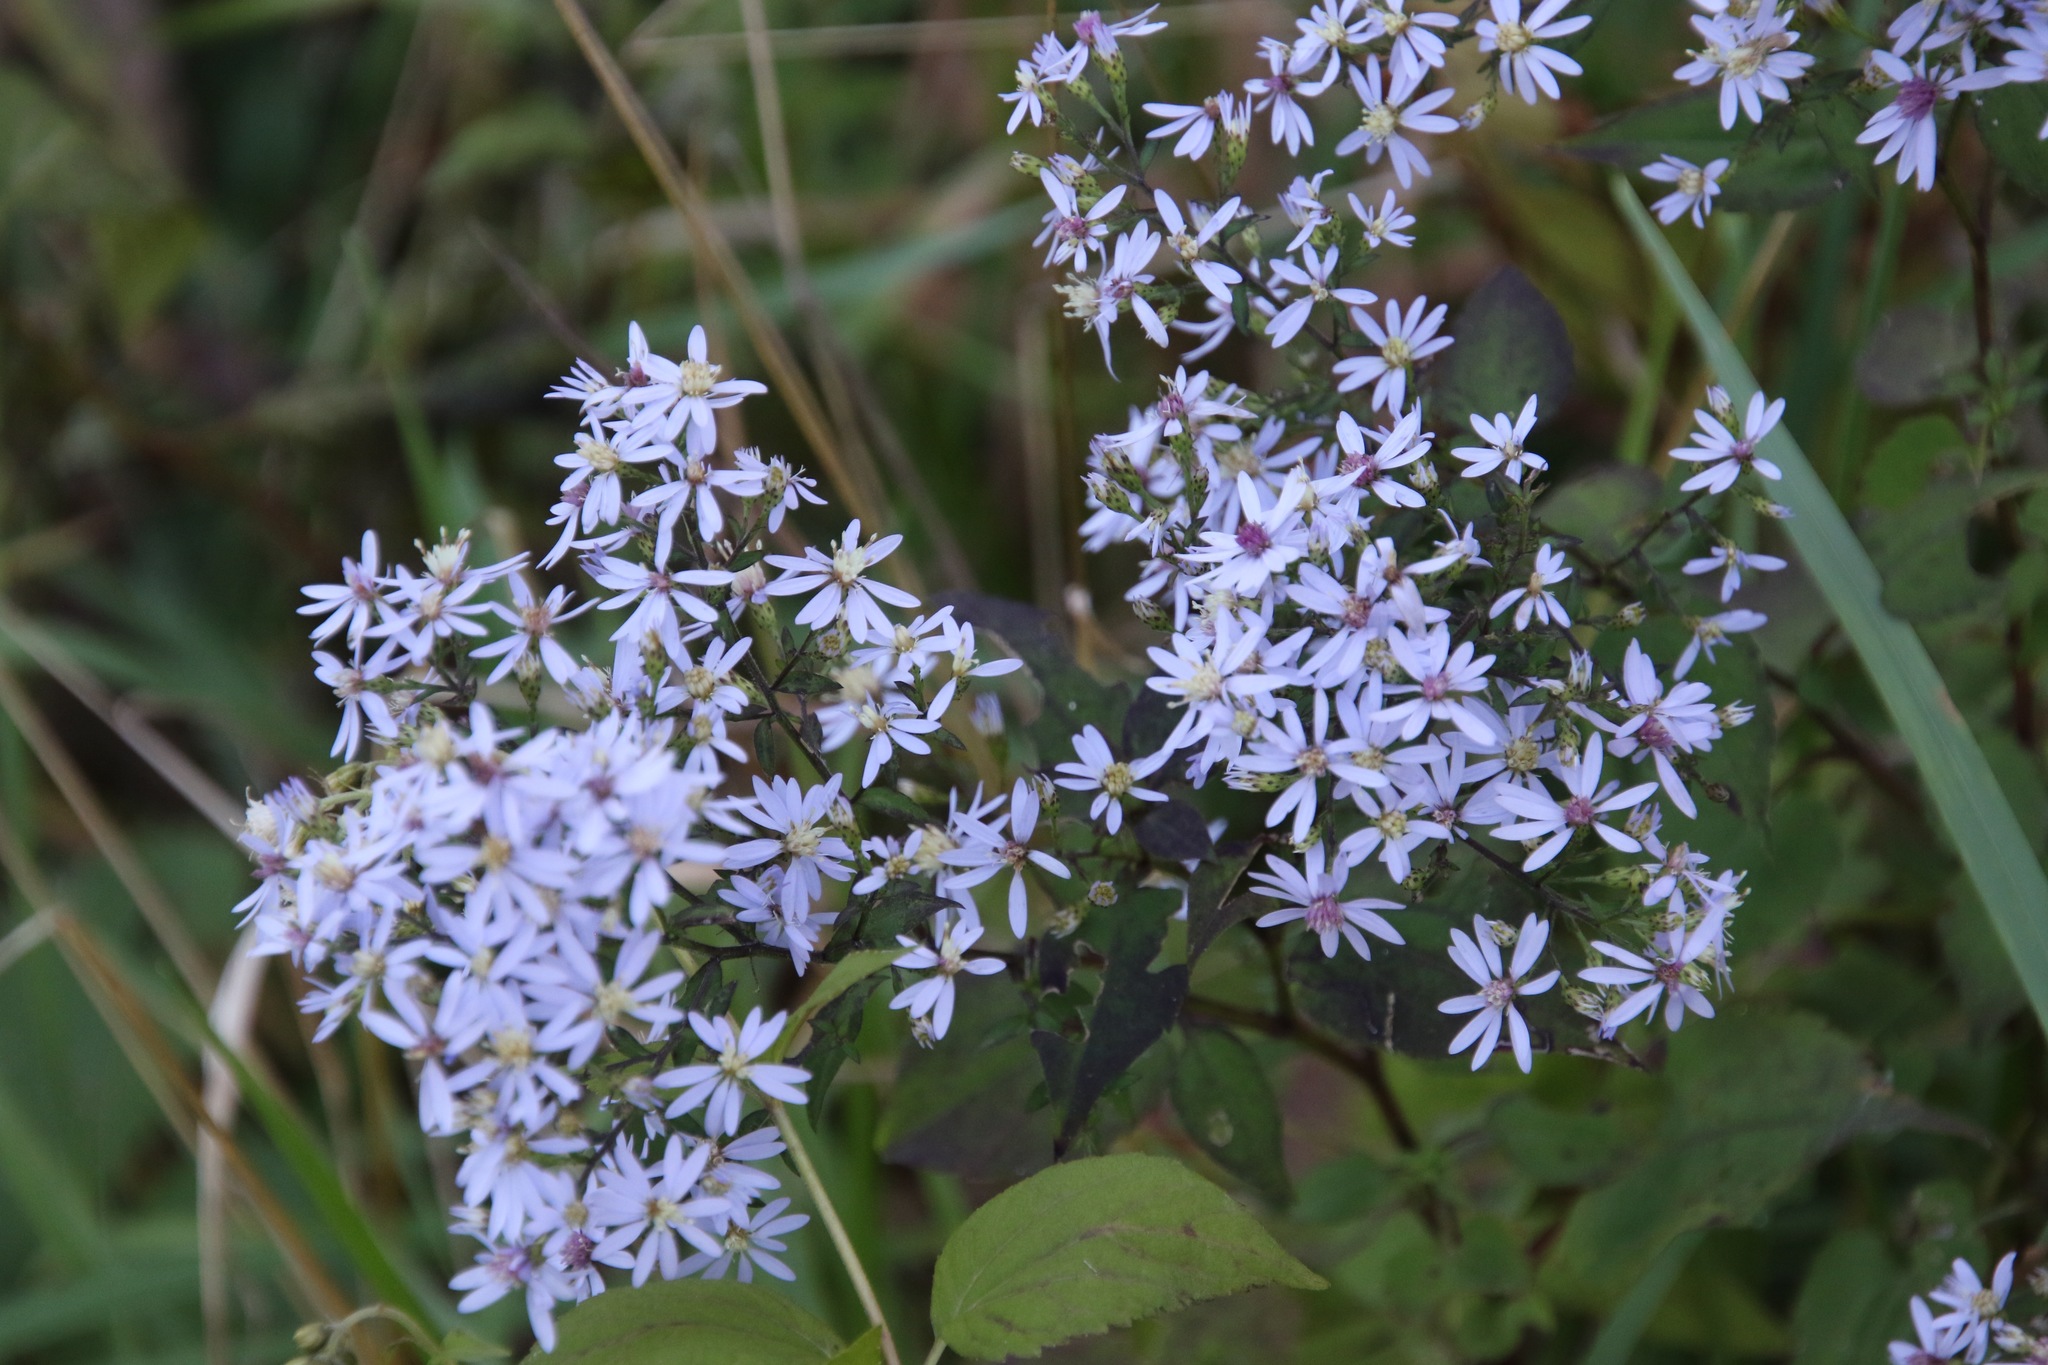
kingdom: Plantae
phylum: Tracheophyta
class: Magnoliopsida
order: Asterales
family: Asteraceae
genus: Symphyotrichum
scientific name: Symphyotrichum cordifolium
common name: Beeweed
